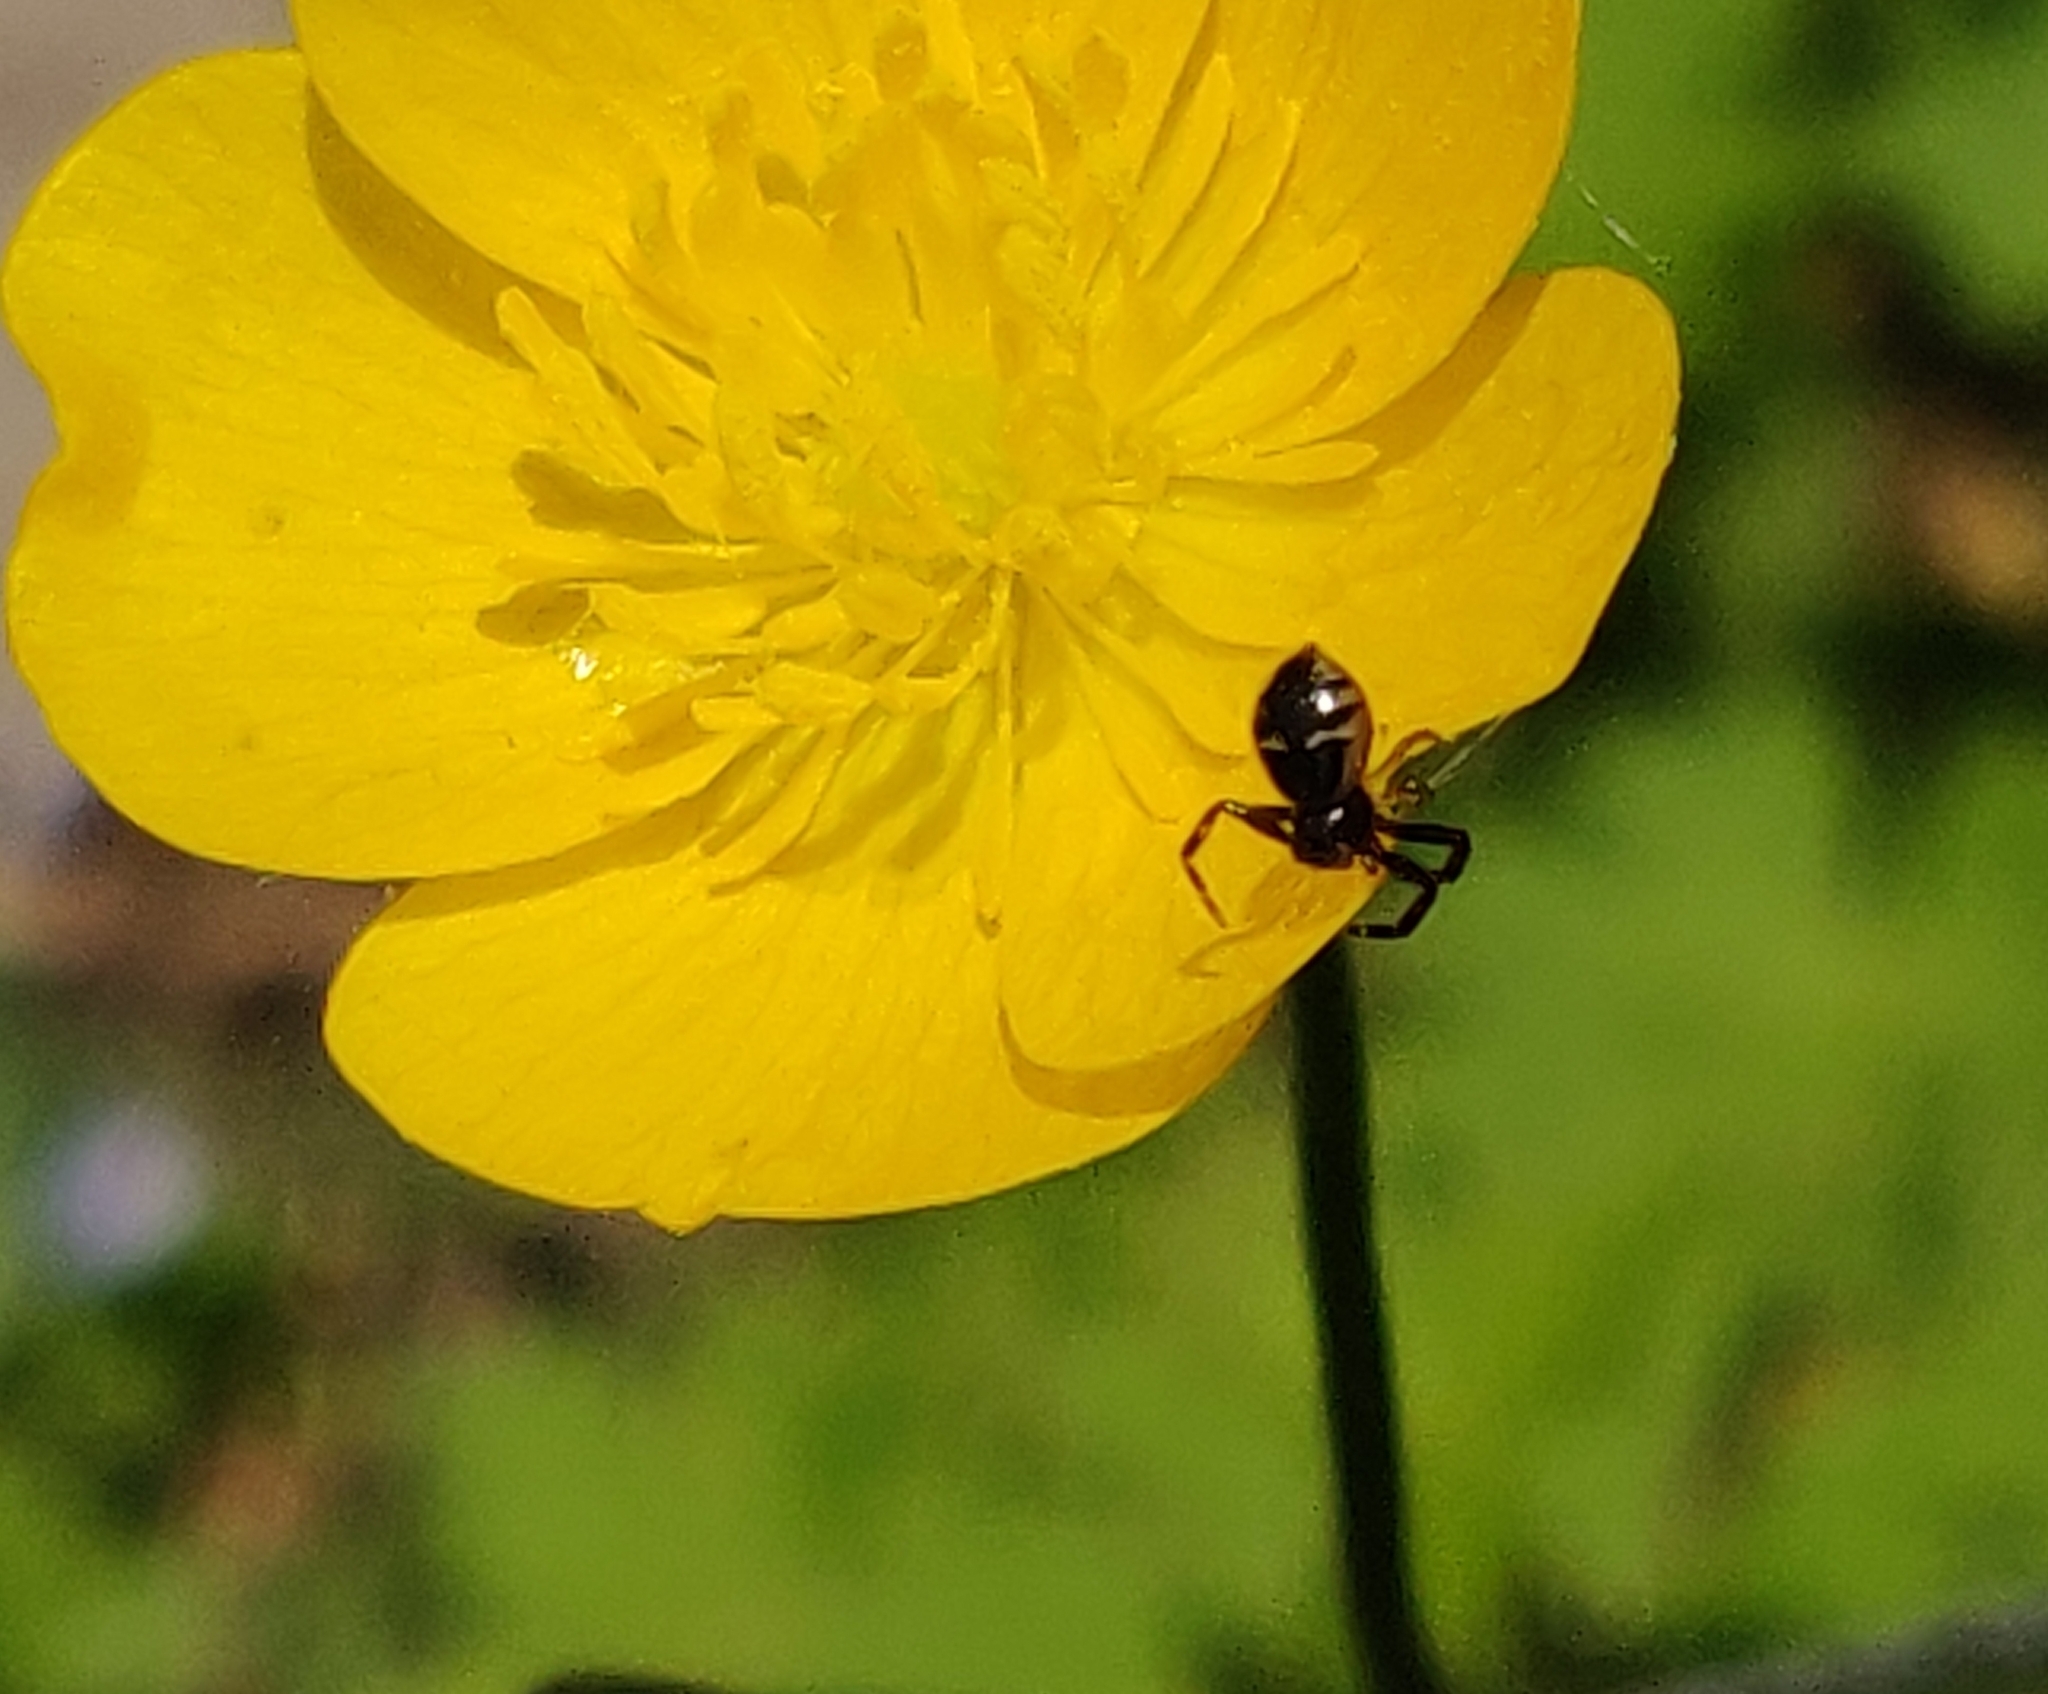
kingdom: Animalia
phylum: Arthropoda
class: Arachnida
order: Araneae
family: Thomisidae
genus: Synema
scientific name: Synema globosum
